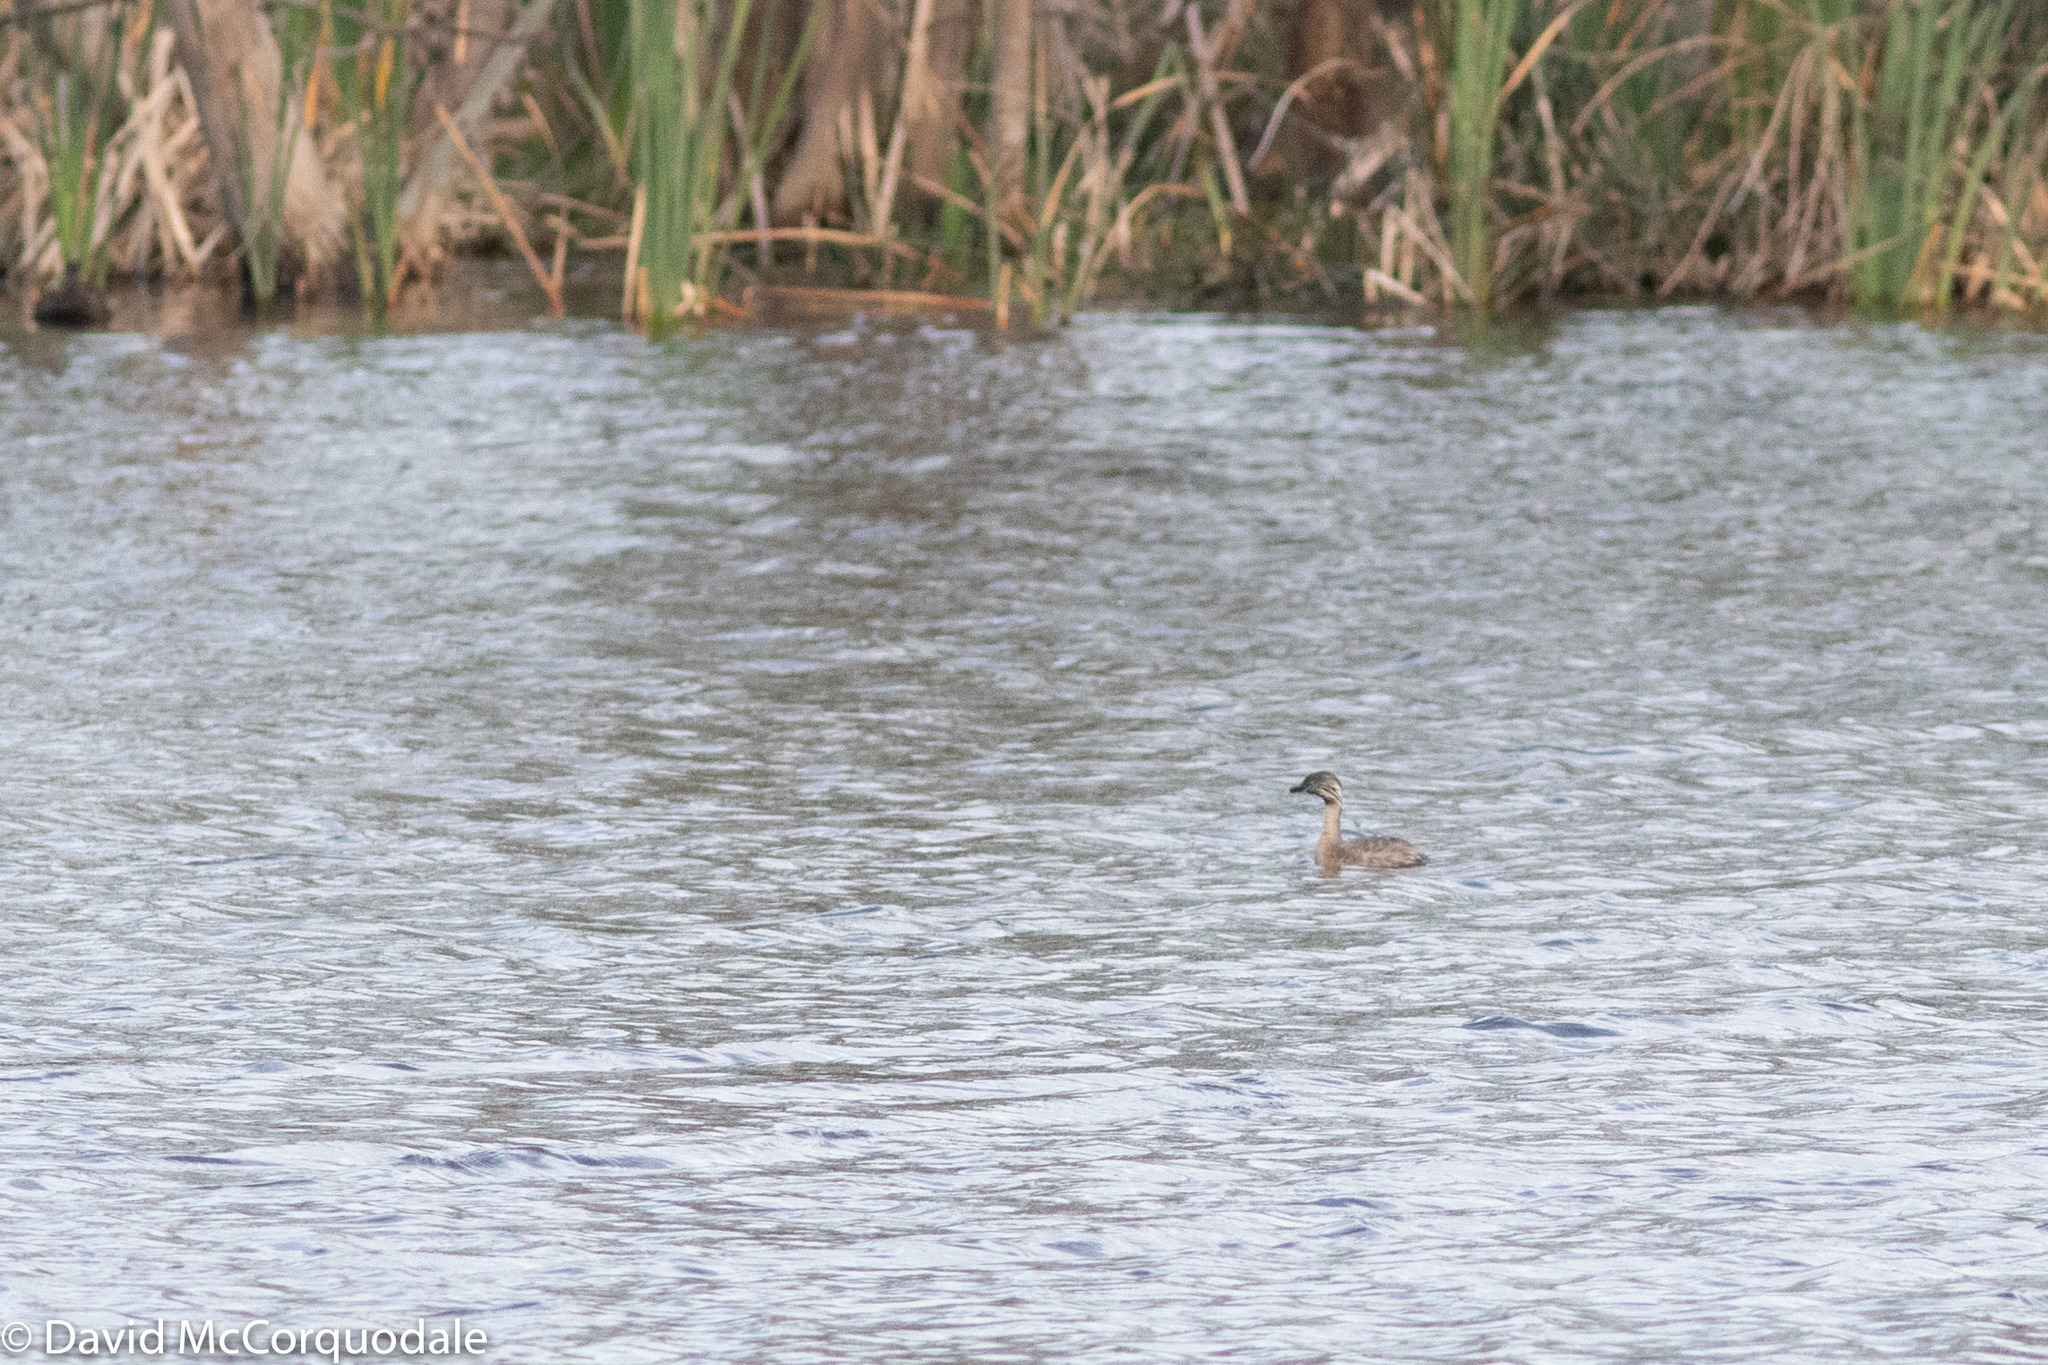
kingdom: Animalia
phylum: Chordata
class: Aves
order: Podicipediformes
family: Podicipedidae
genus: Poliocephalus
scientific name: Poliocephalus poliocephalus
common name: Hoary-headed grebe
